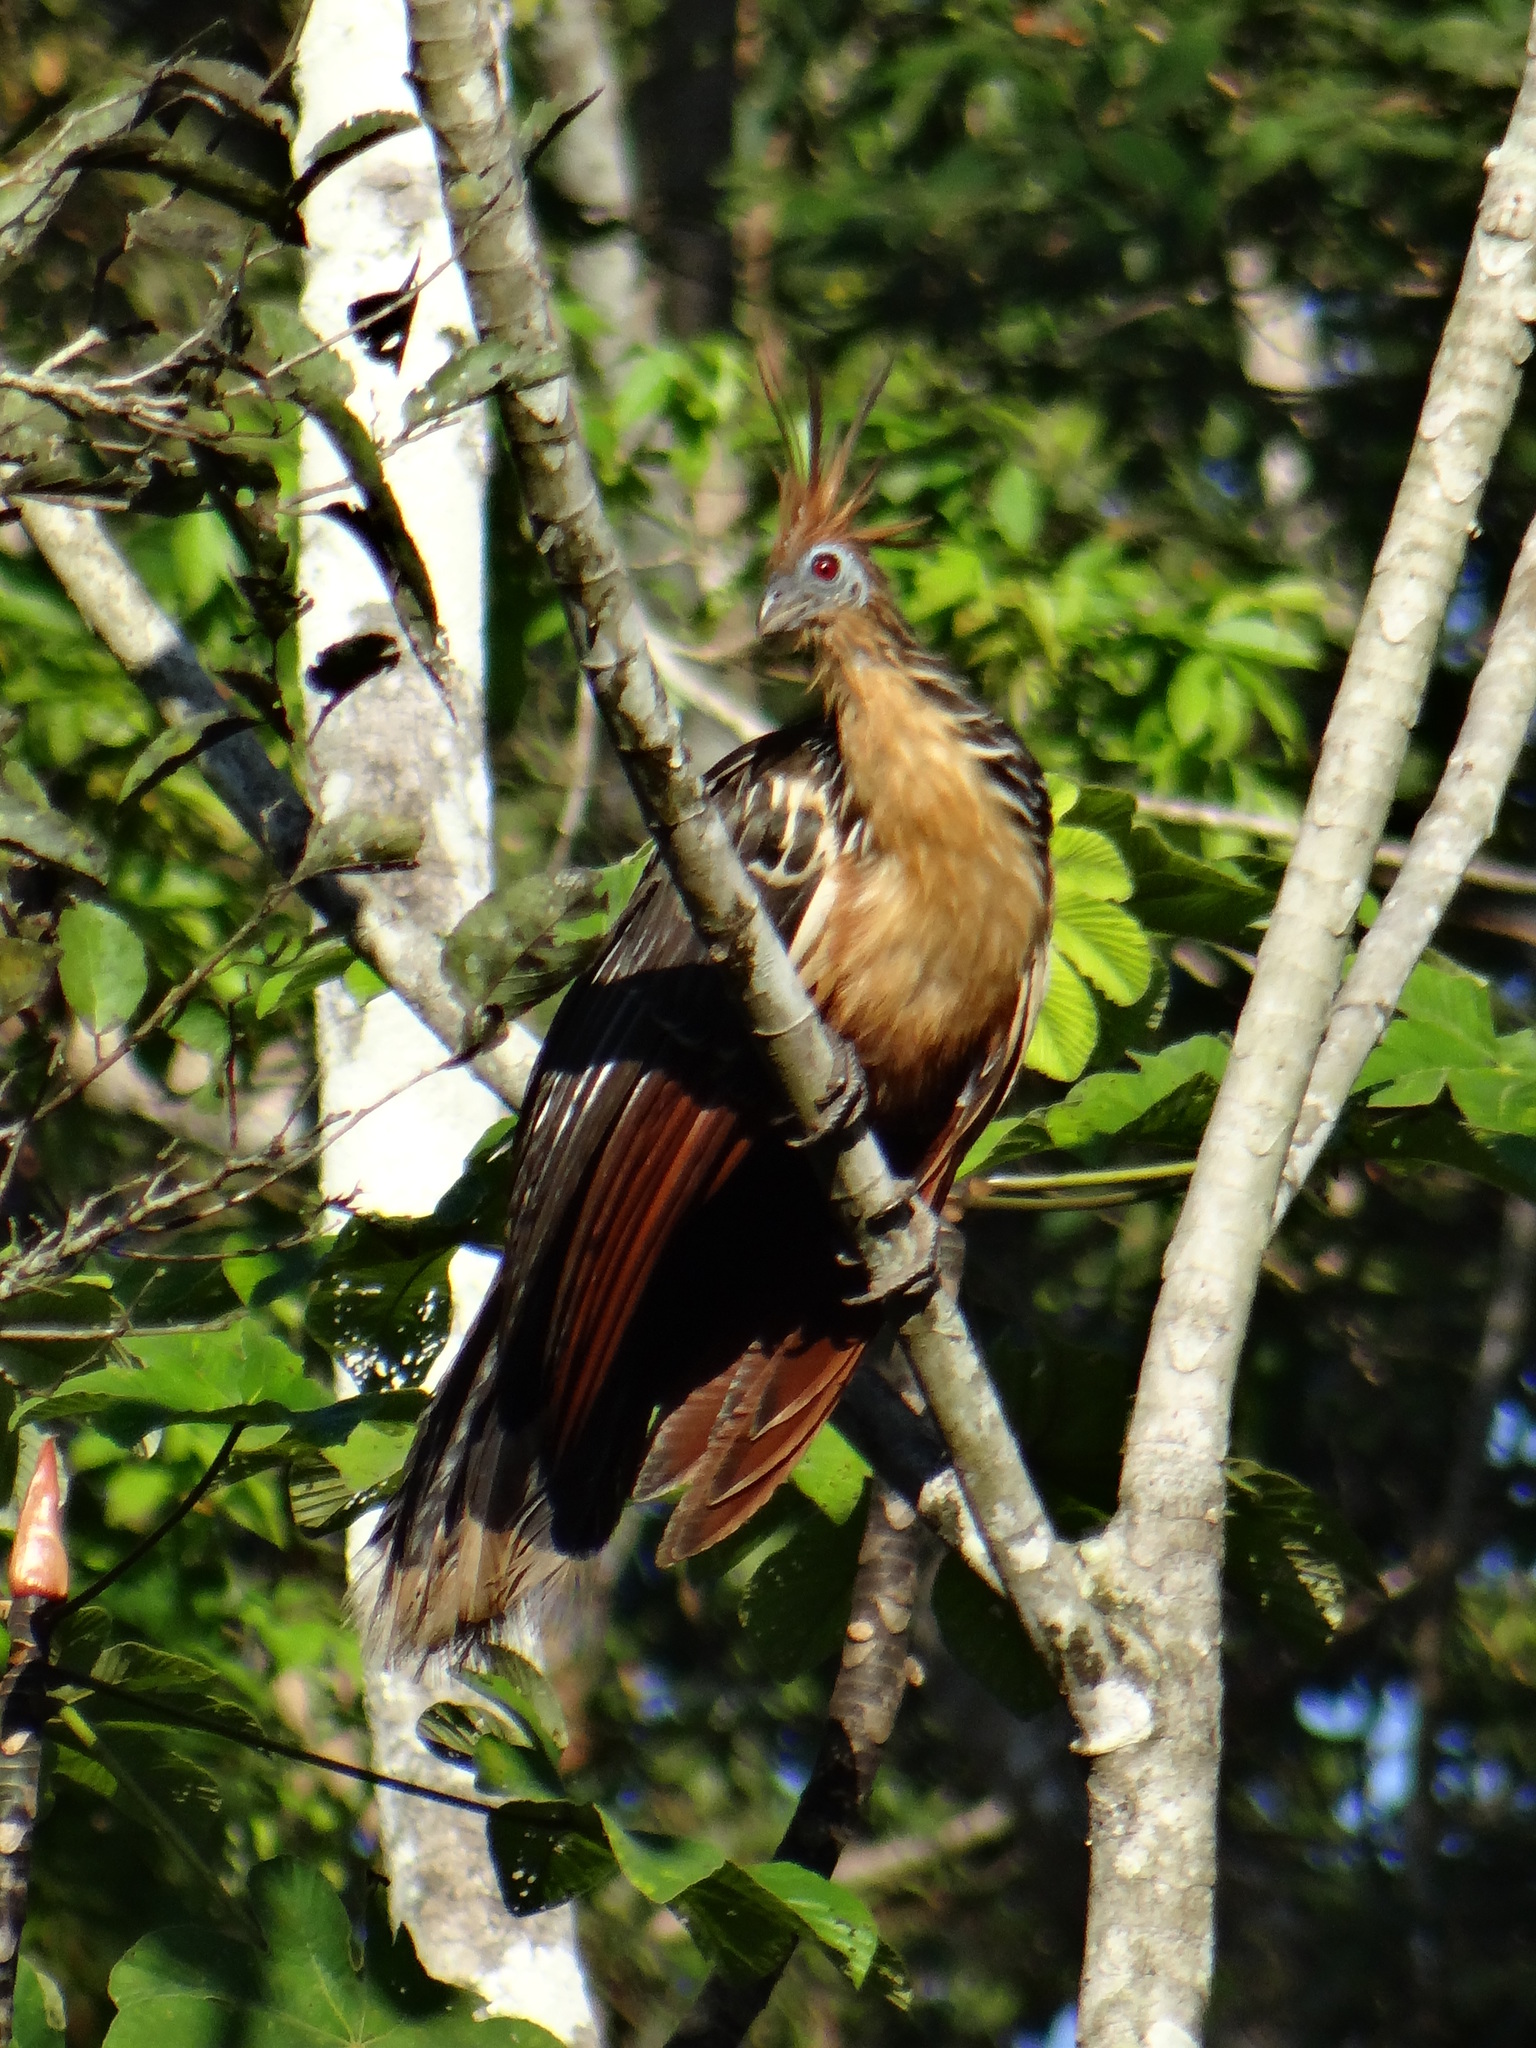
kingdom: Animalia
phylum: Chordata
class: Aves
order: Opisthocomiformes
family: Opisthocomidae
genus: Opisthocomus
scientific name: Opisthocomus hoazin
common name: Hoatzin
